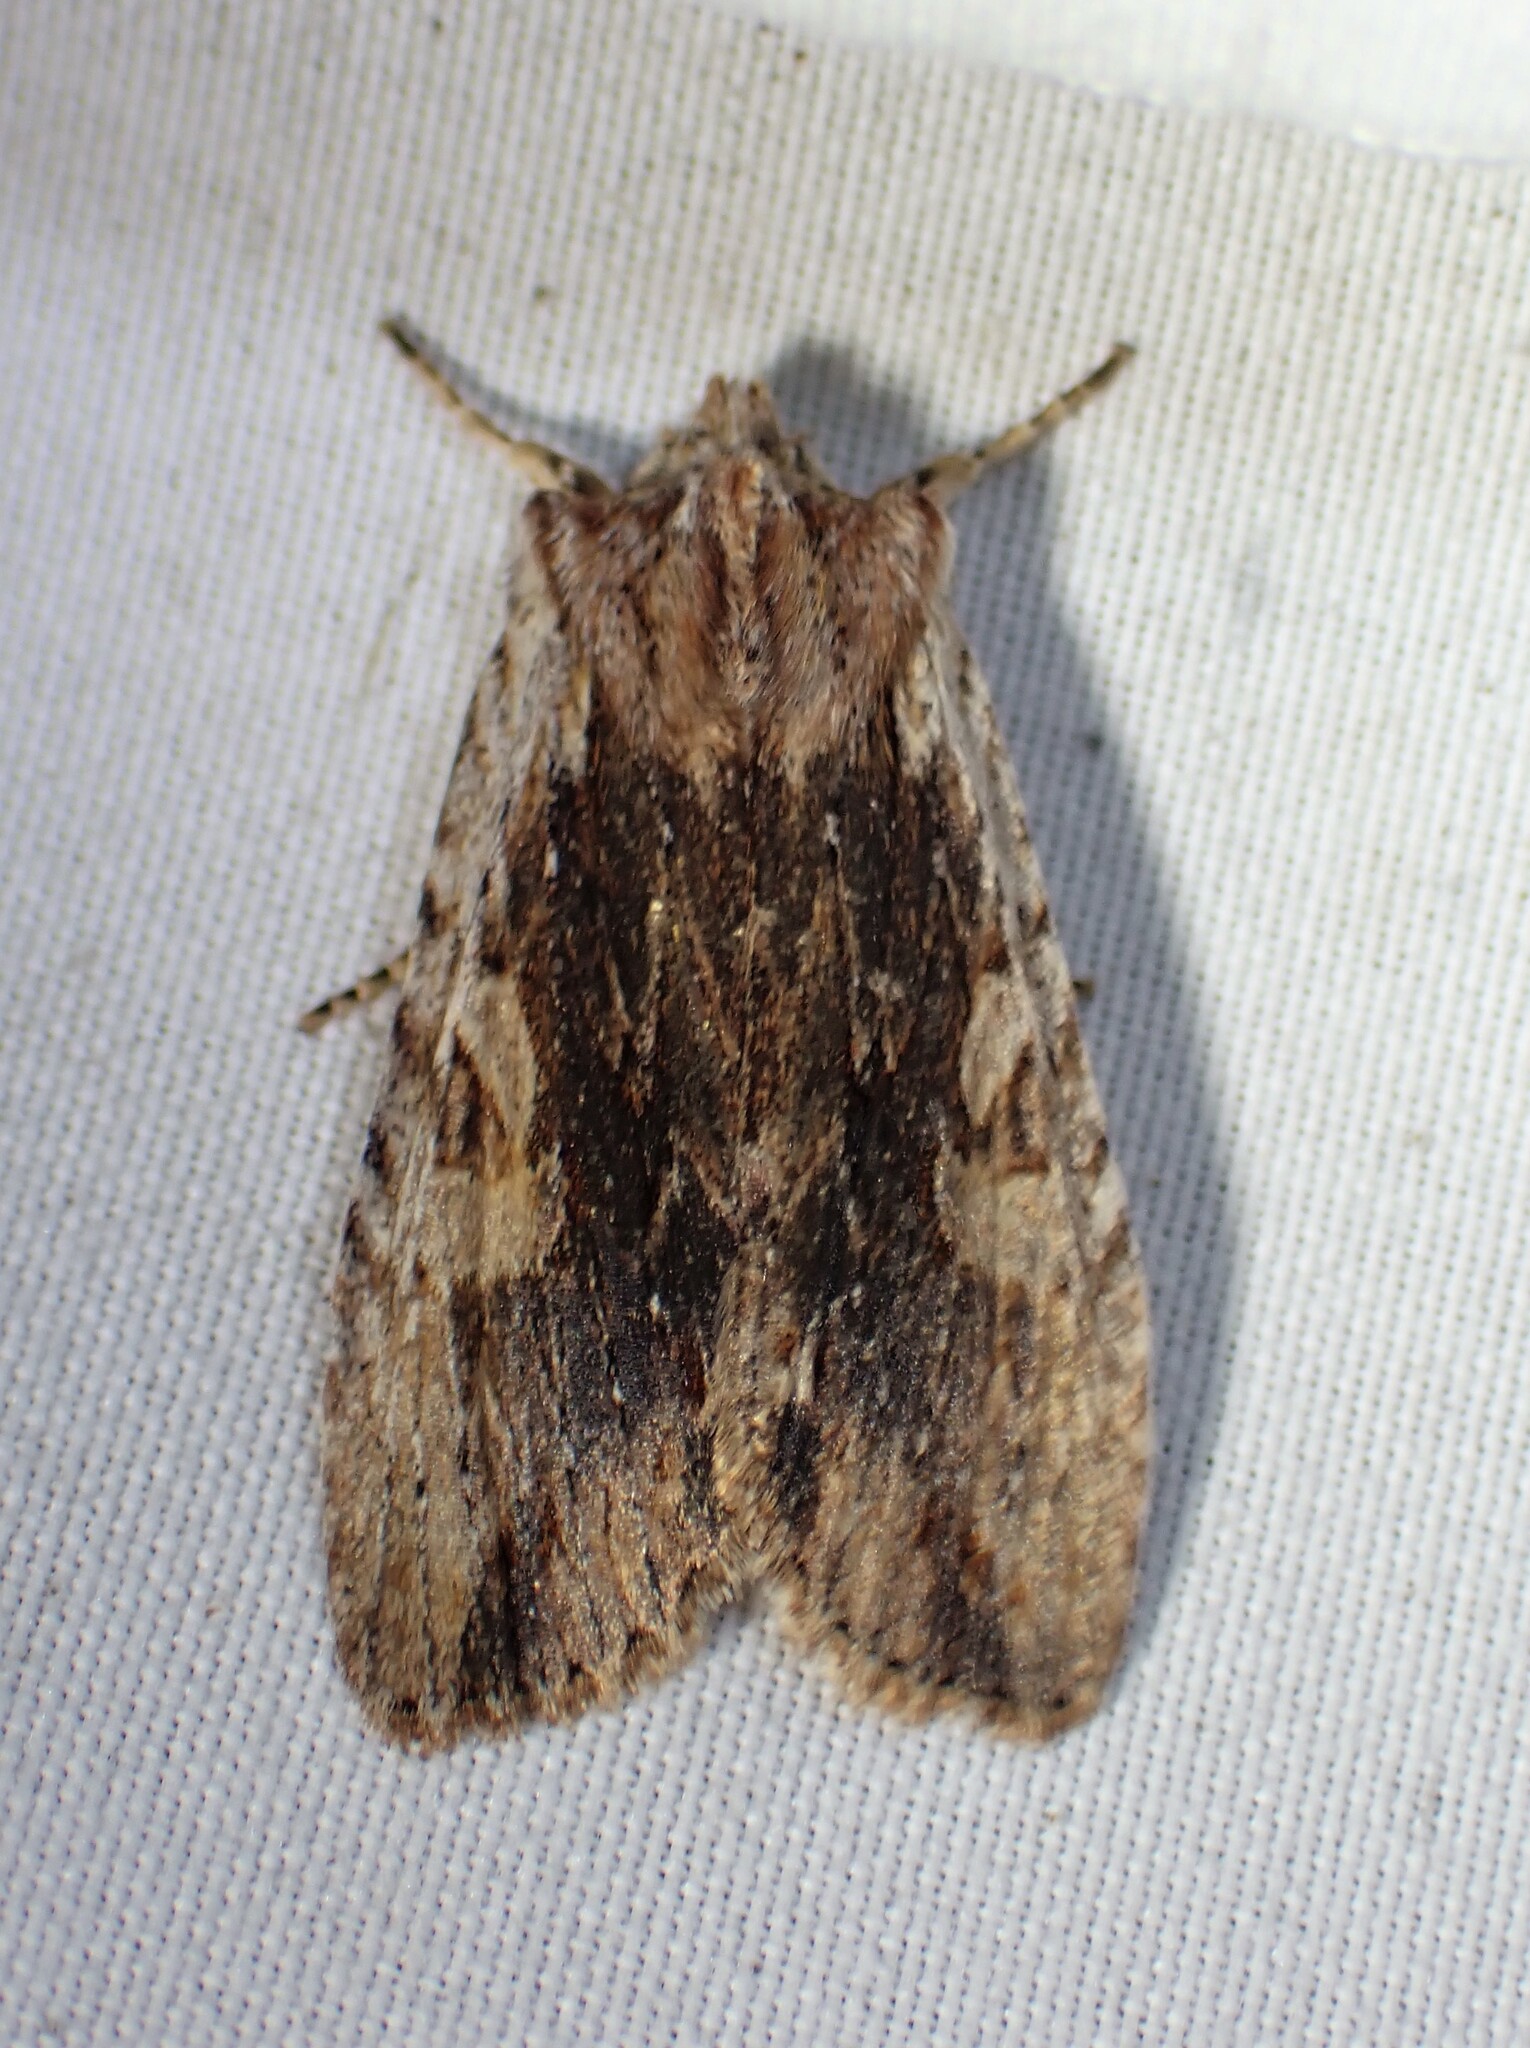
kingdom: Animalia
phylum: Arthropoda
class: Insecta
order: Lepidoptera
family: Noctuidae
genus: Lithophane
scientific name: Lithophane petulca
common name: Wanton pinion
